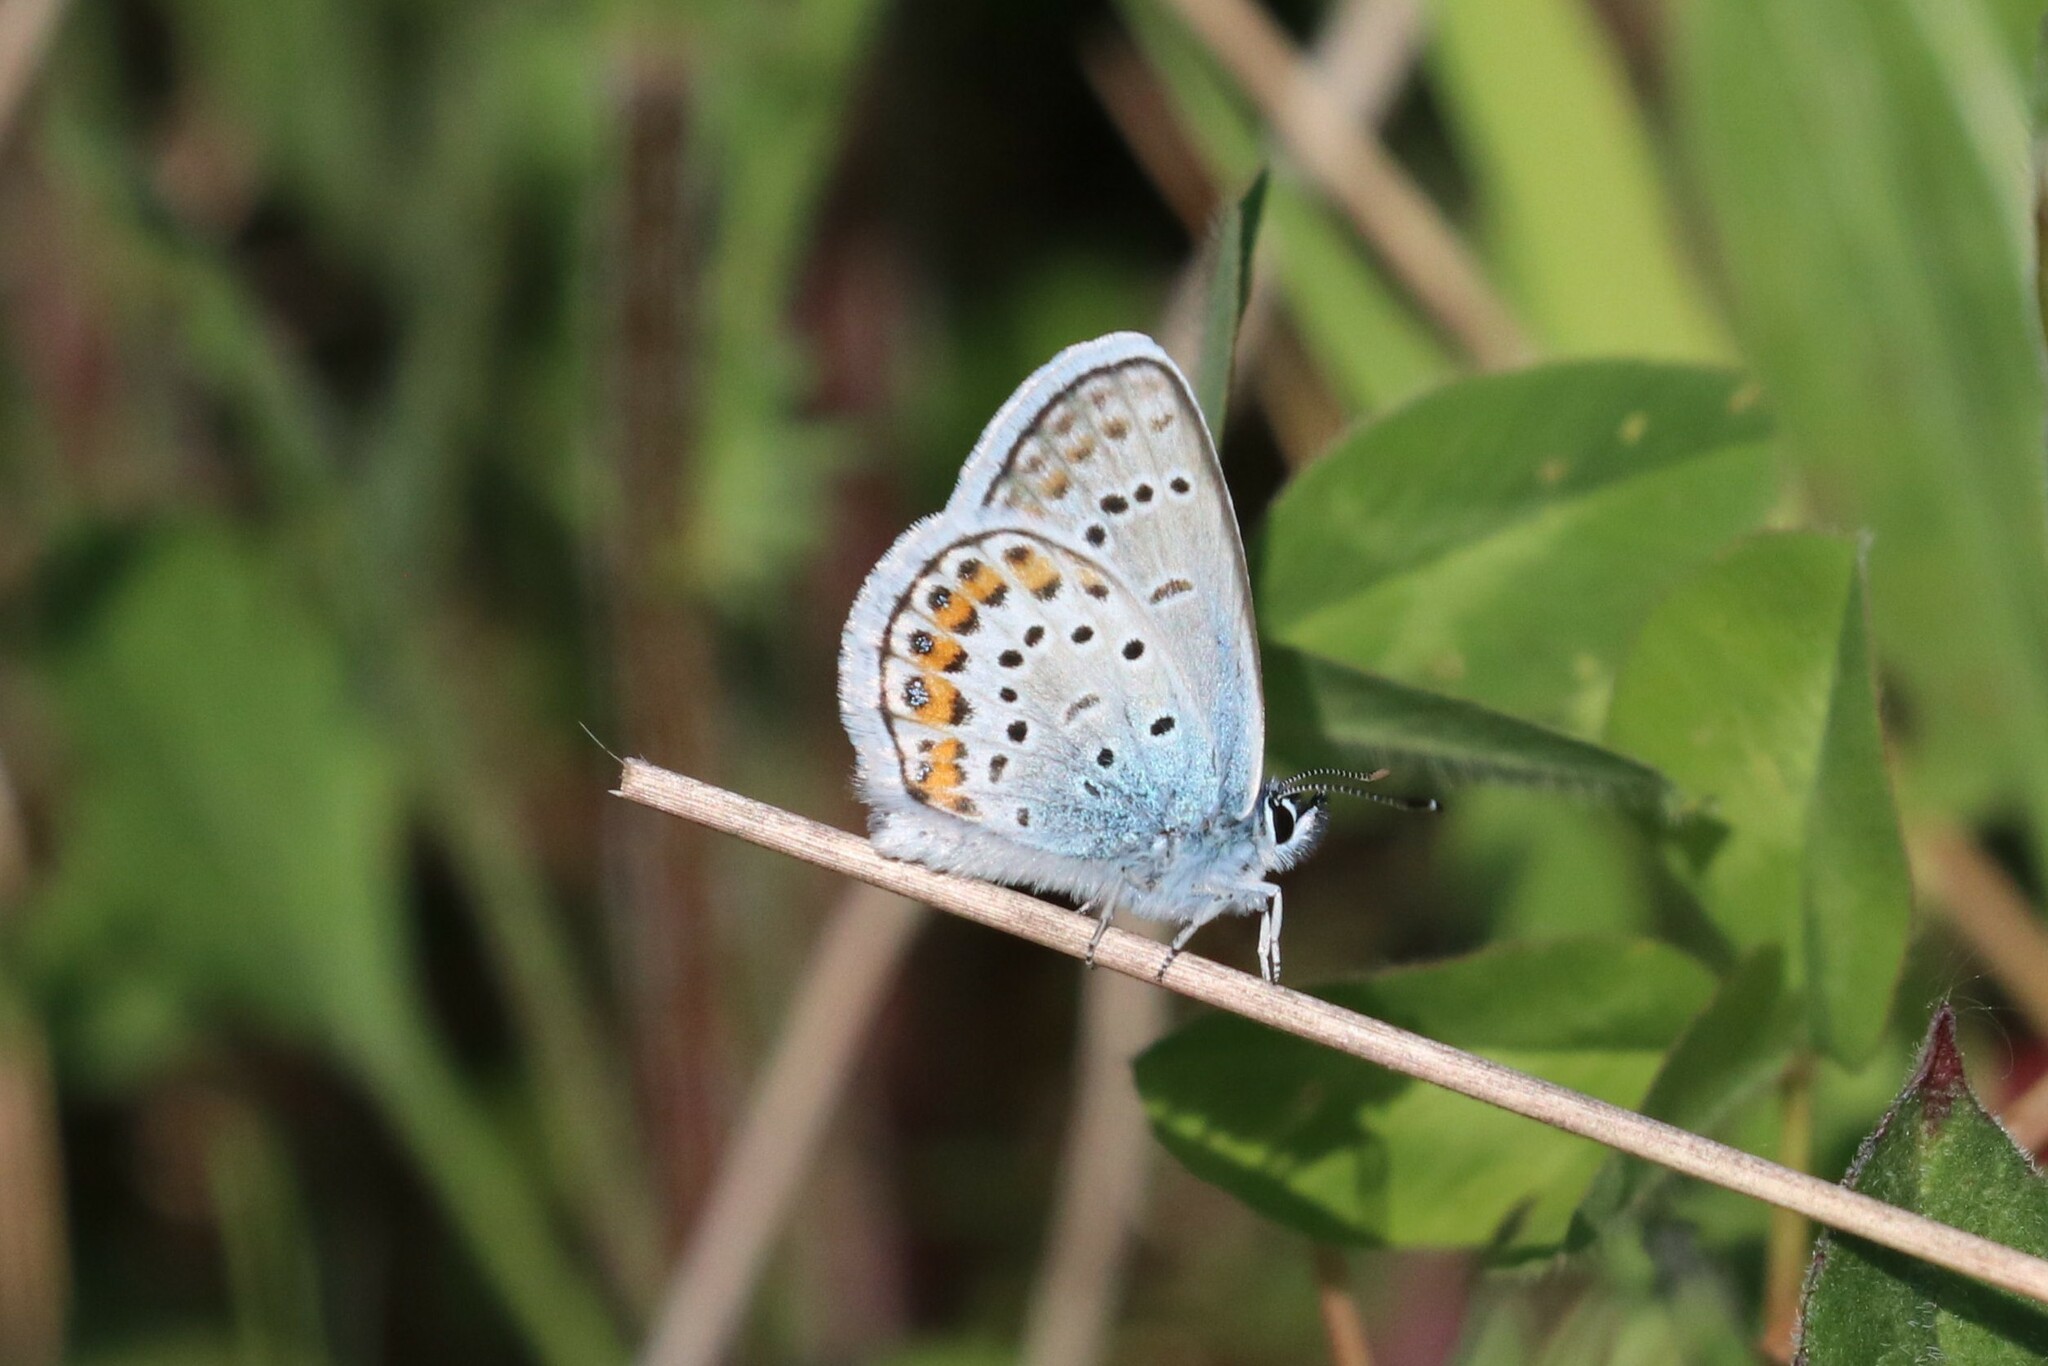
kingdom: Animalia
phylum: Arthropoda
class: Insecta
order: Lepidoptera
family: Lycaenidae
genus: Plebejus
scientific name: Plebejus argus
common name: Silver-studded blue
